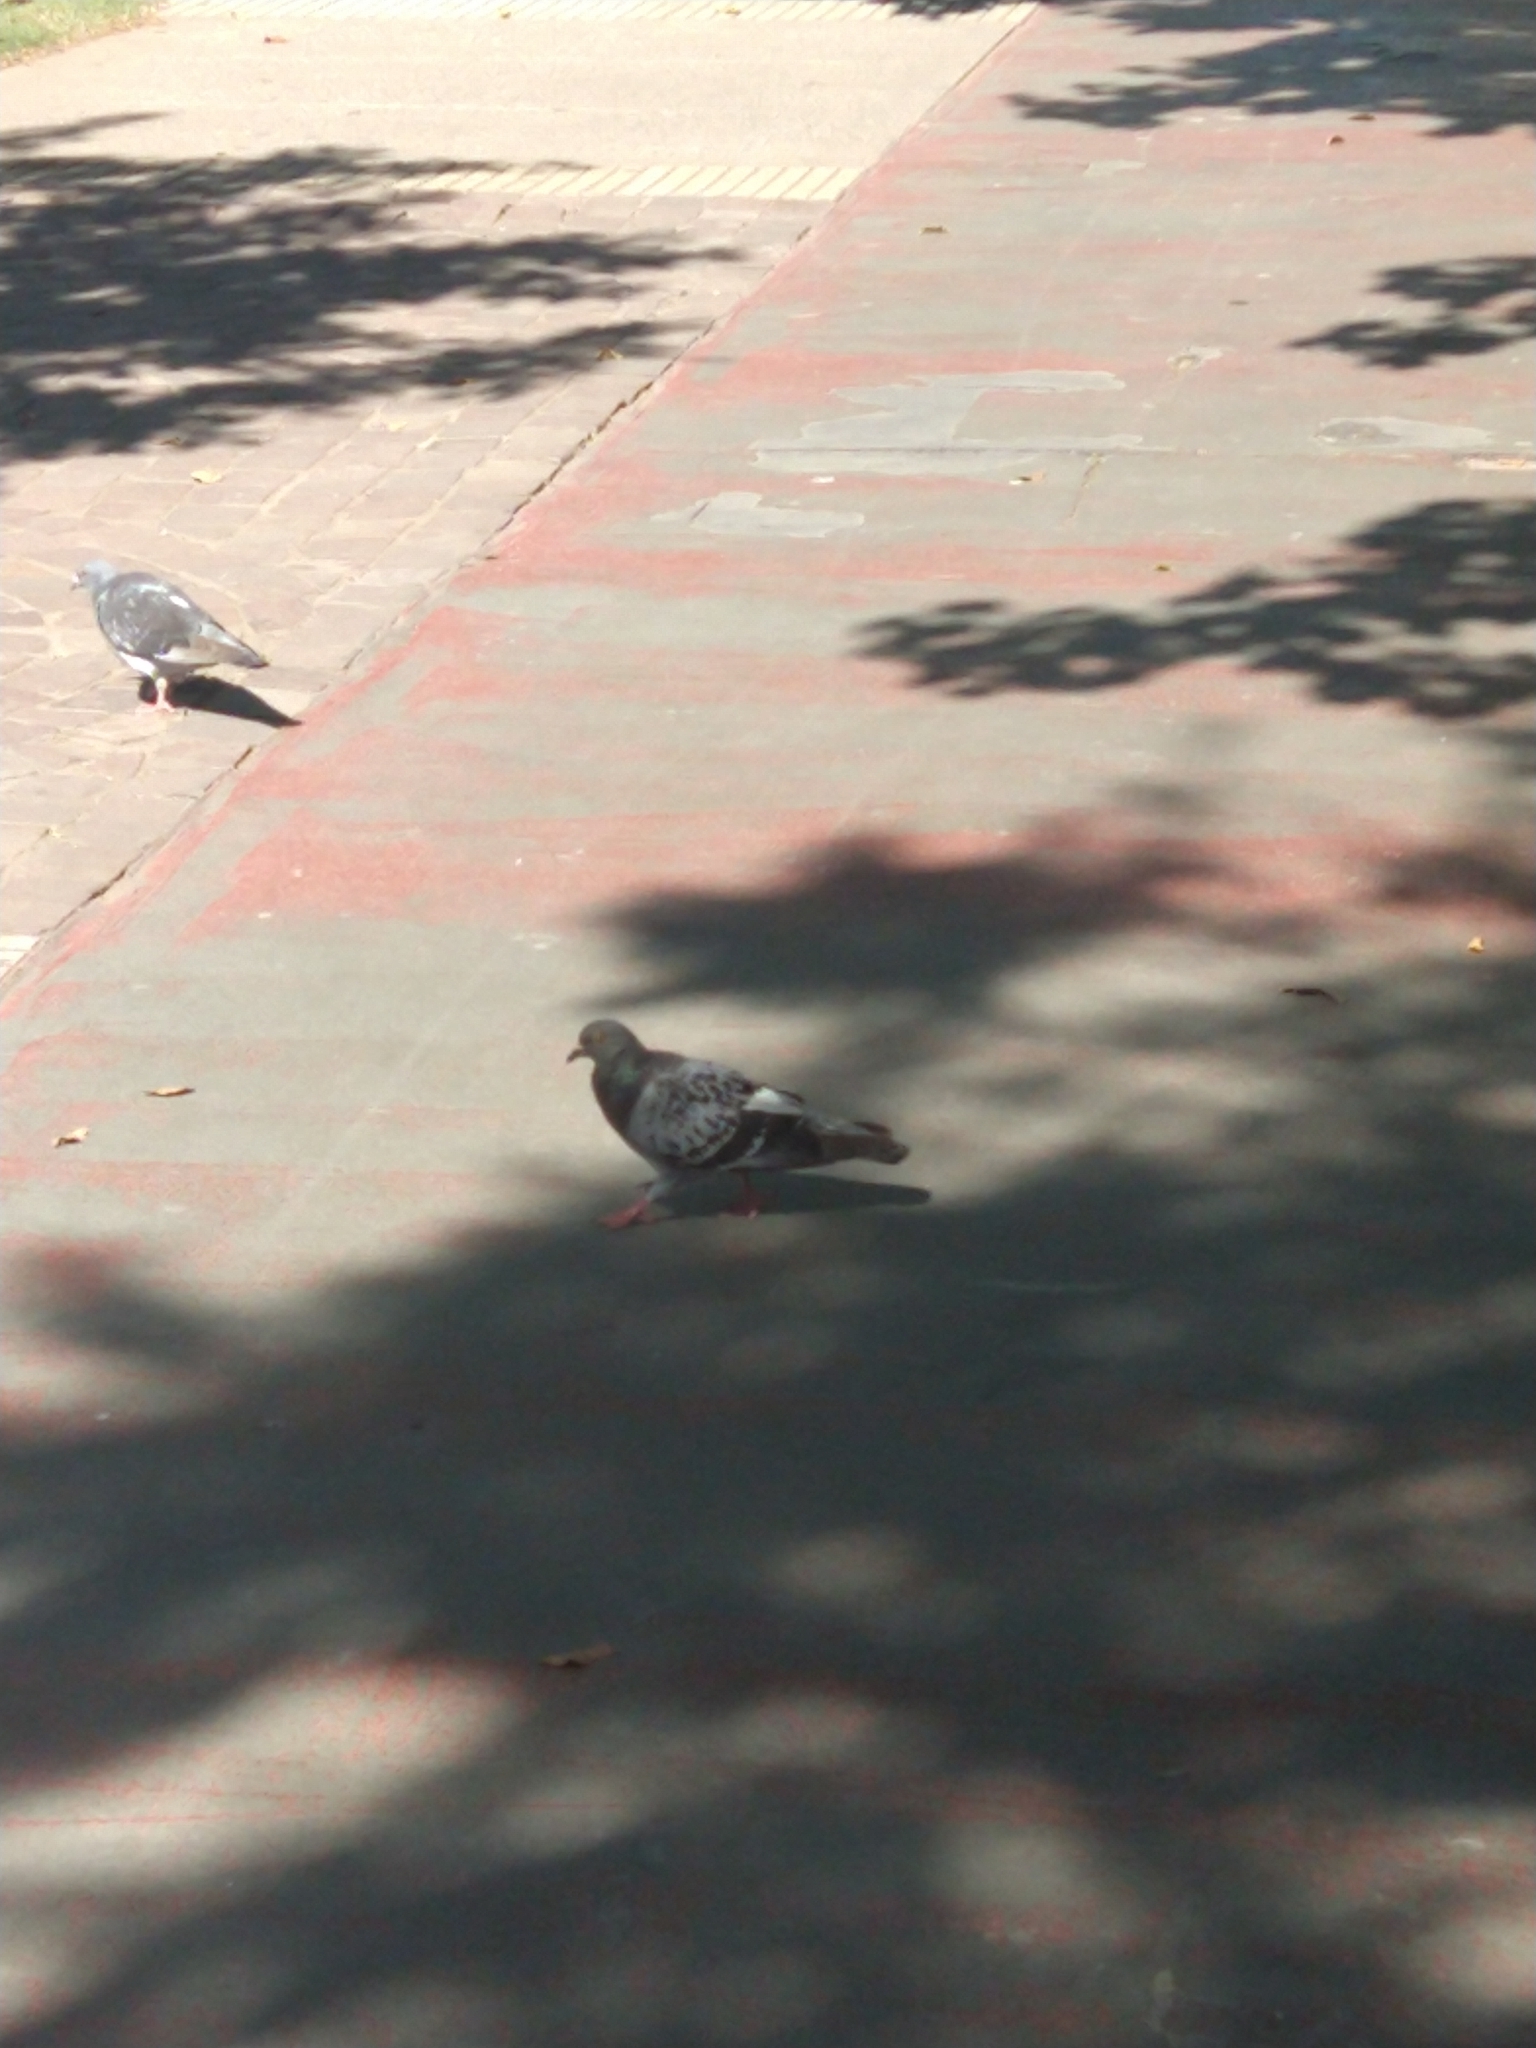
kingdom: Animalia
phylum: Chordata
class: Aves
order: Columbiformes
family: Columbidae
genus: Columba
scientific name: Columba livia
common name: Rock pigeon
